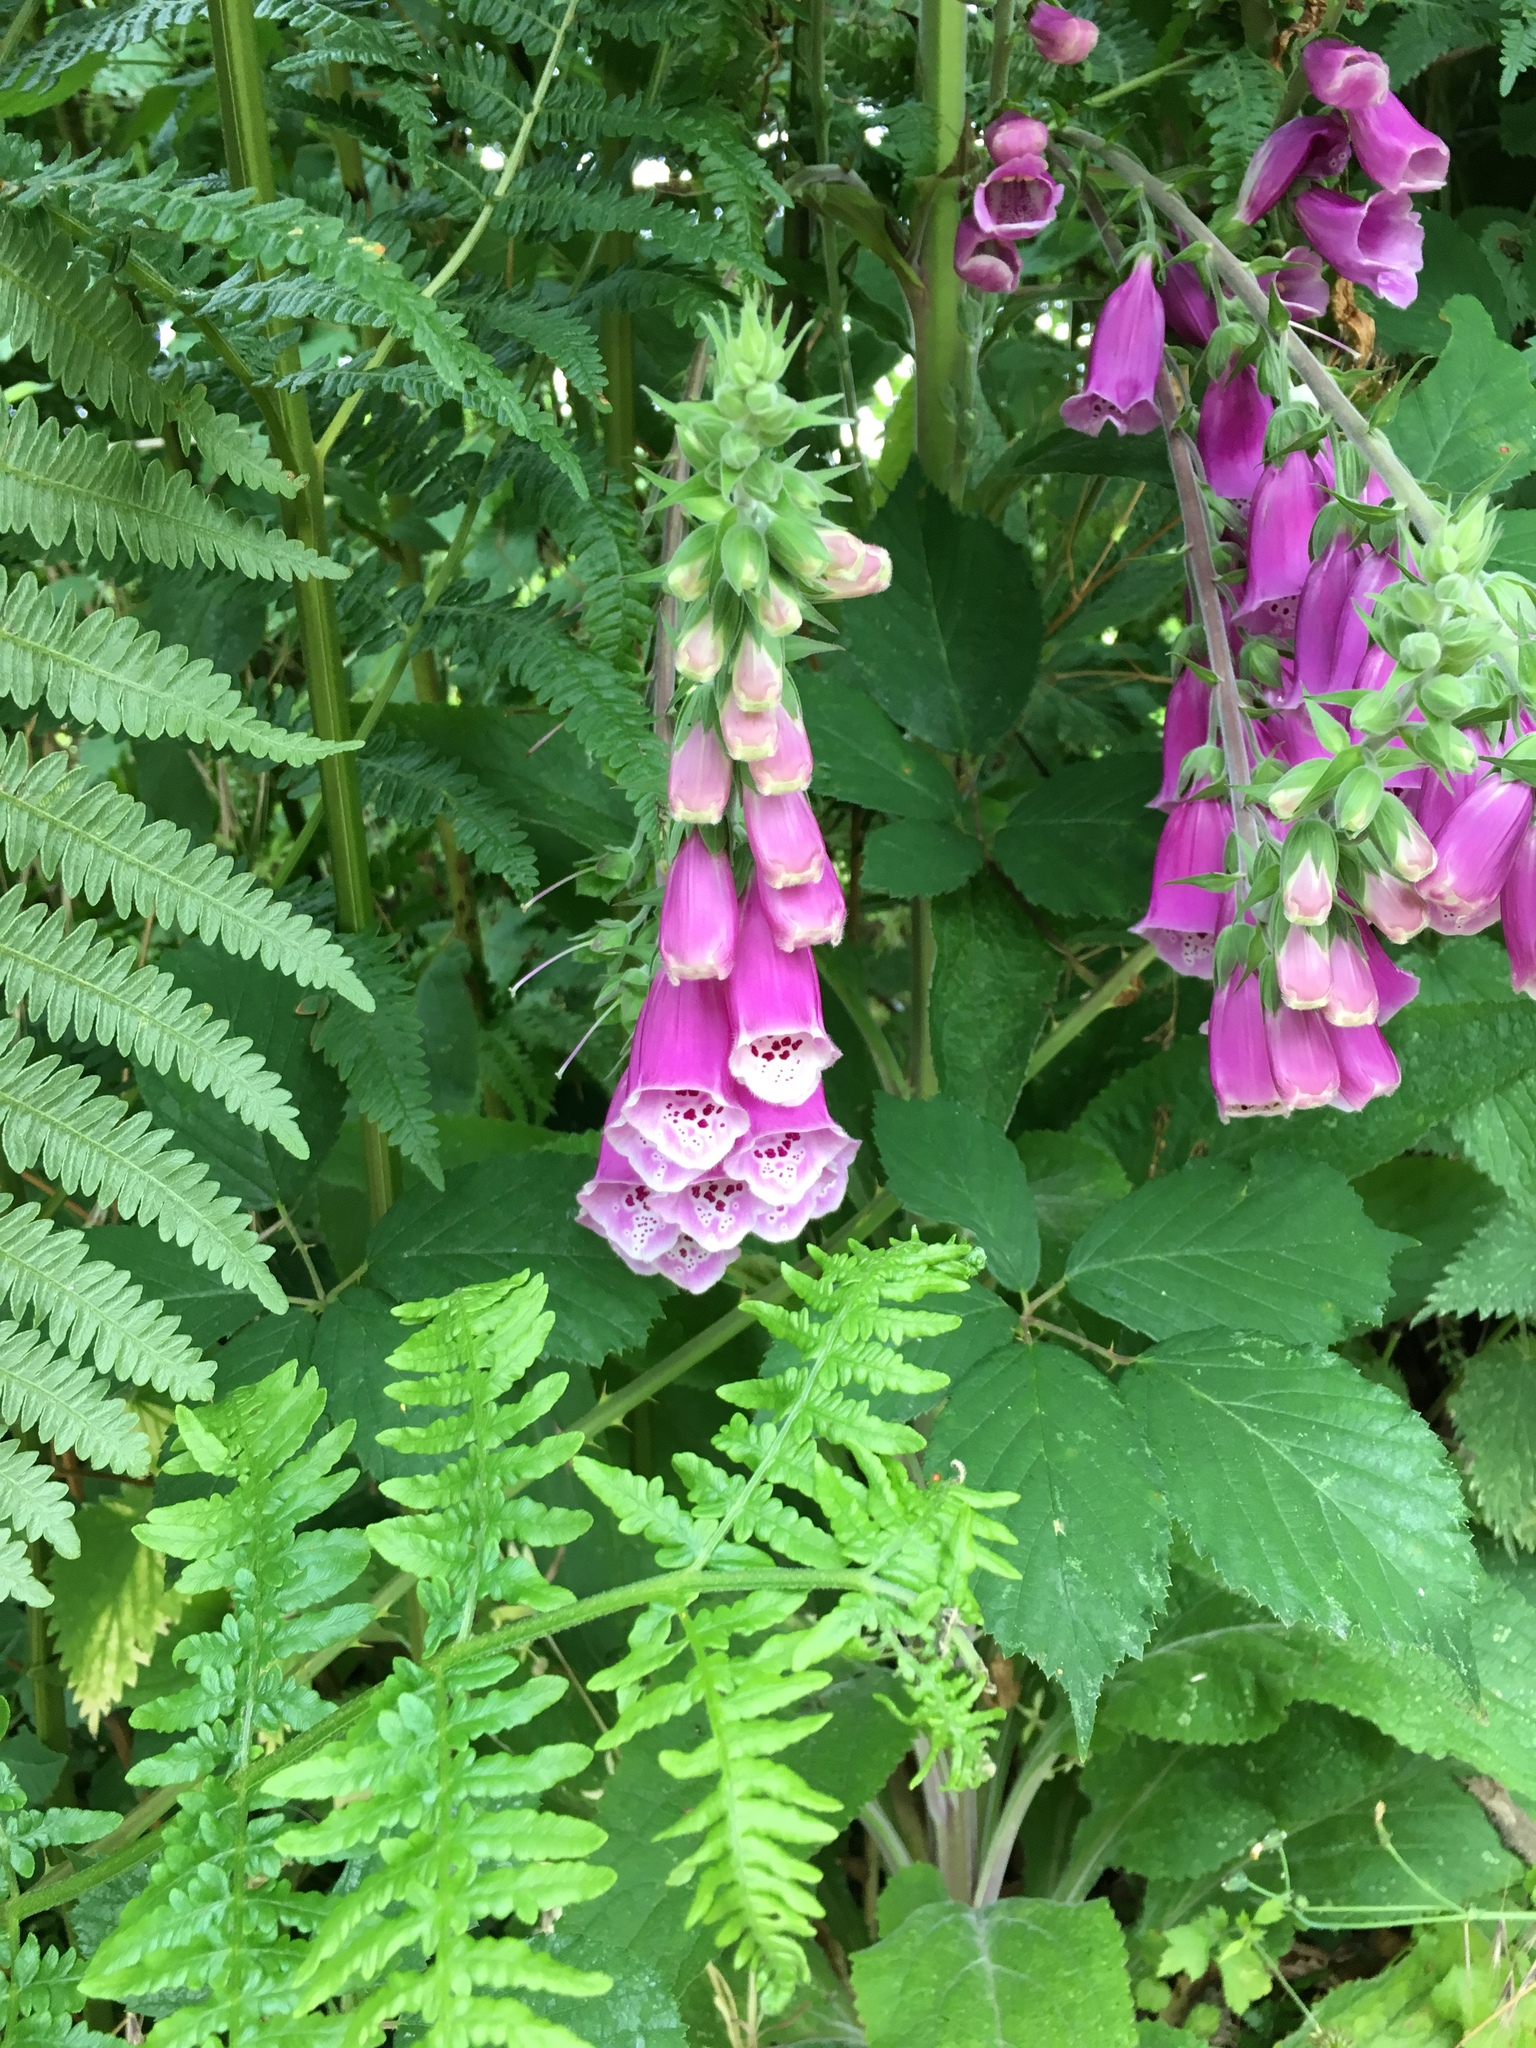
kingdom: Plantae
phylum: Tracheophyta
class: Magnoliopsida
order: Lamiales
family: Plantaginaceae
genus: Digitalis
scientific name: Digitalis purpurea
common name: Foxglove
